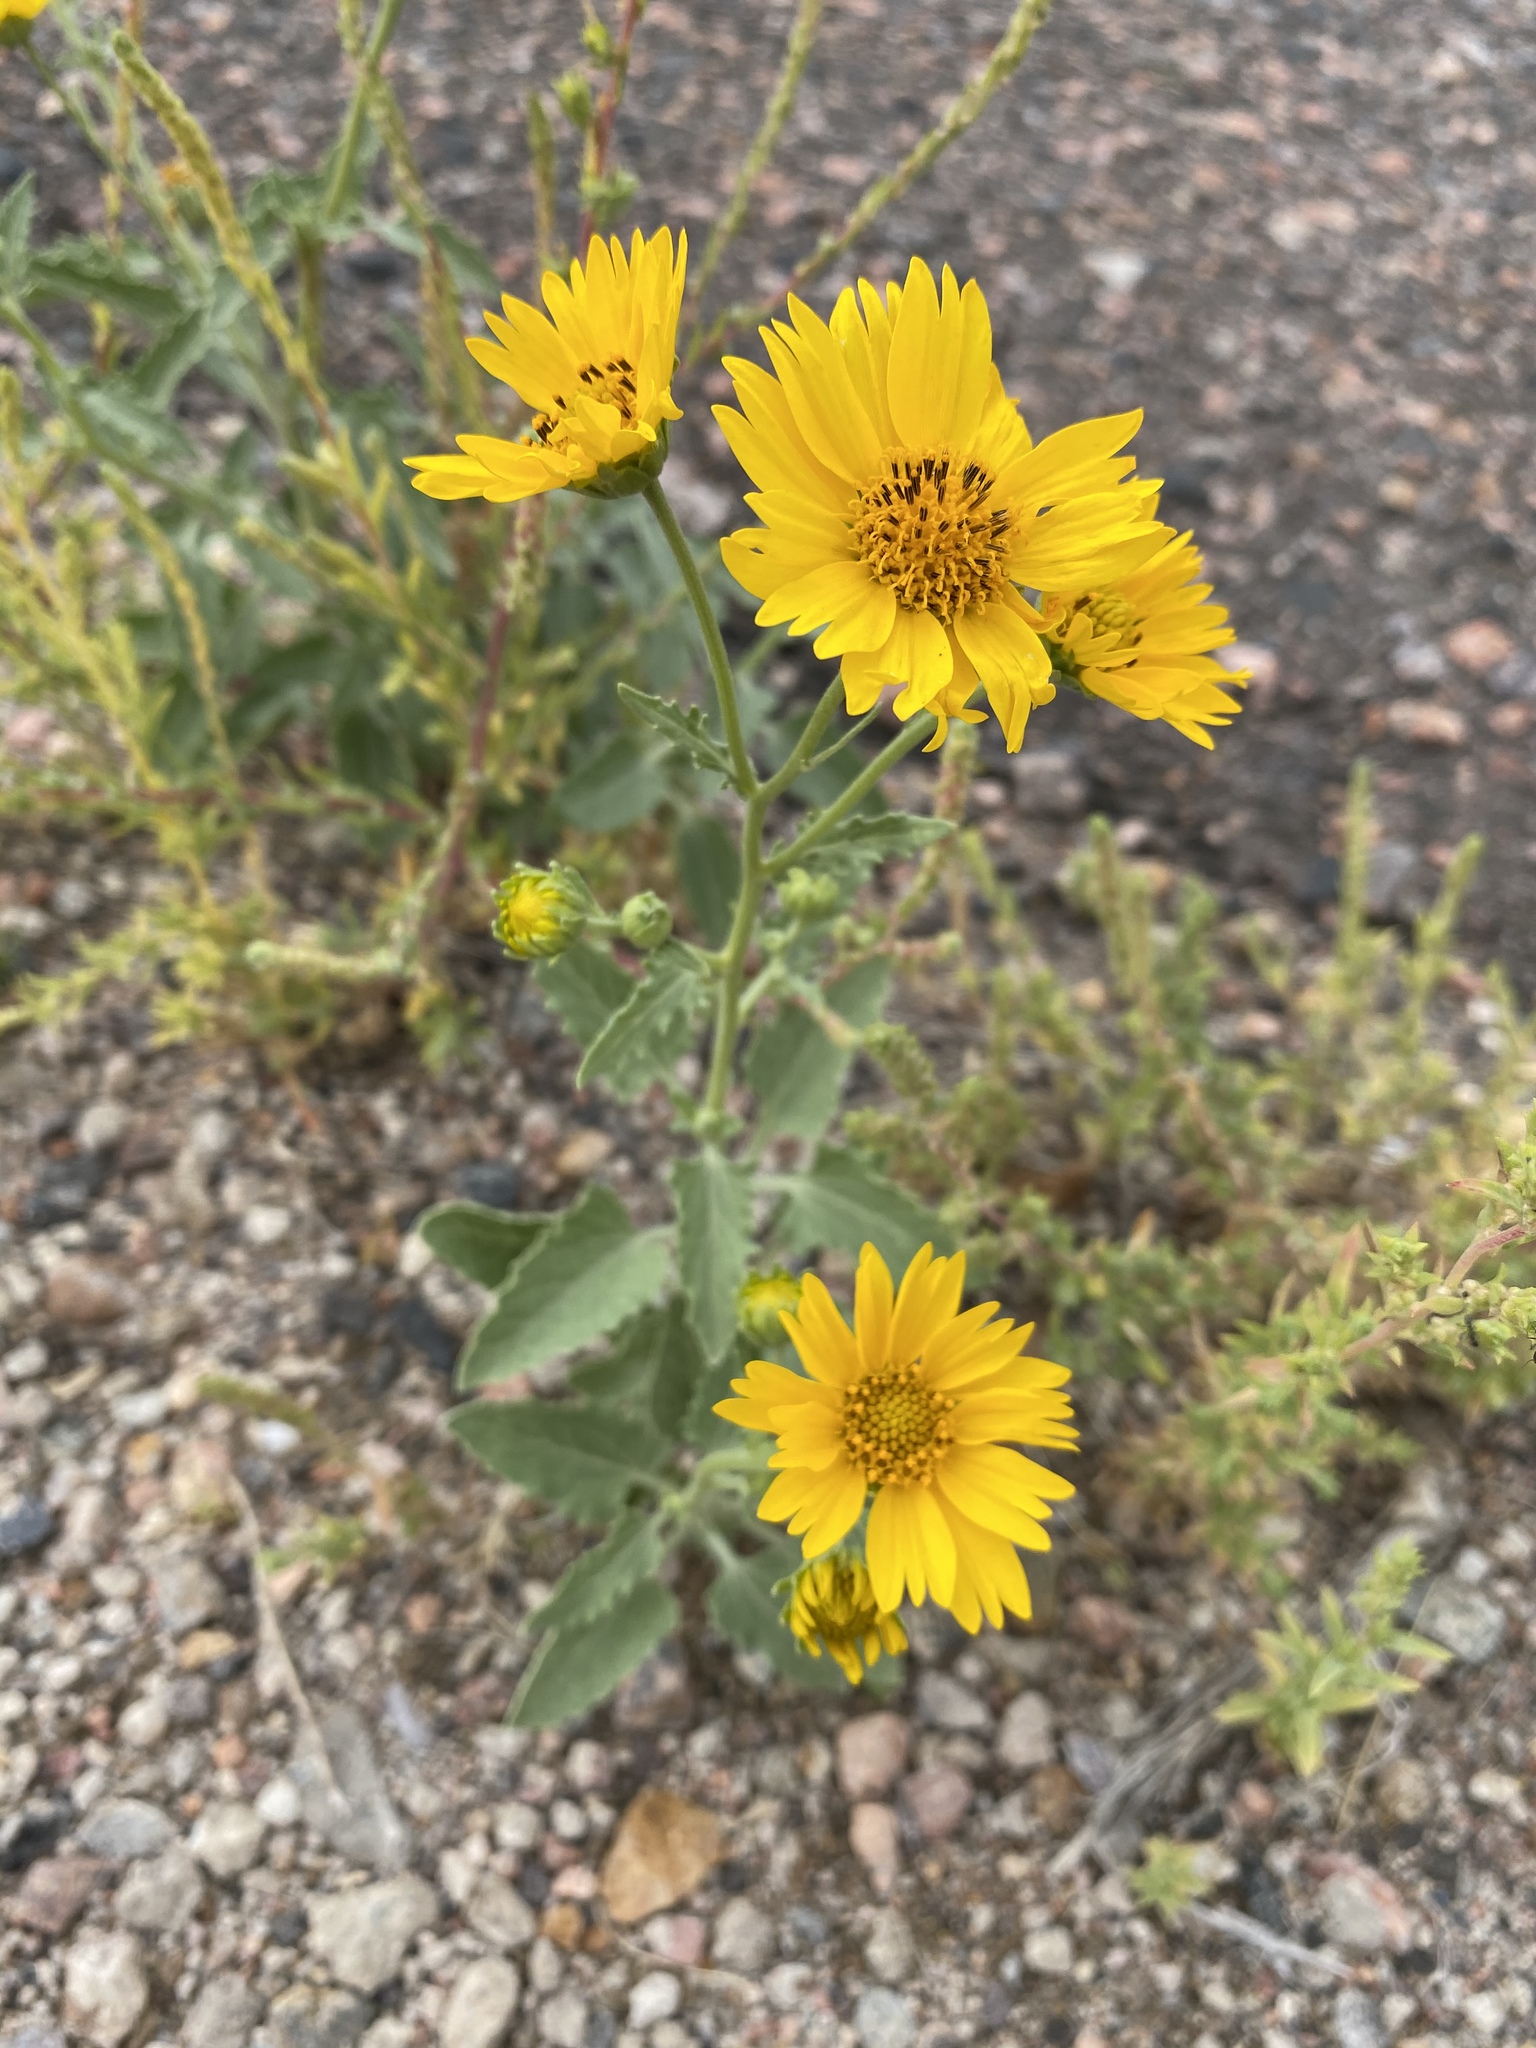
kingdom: Plantae
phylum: Tracheophyta
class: Magnoliopsida
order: Asterales
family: Asteraceae
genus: Verbesina
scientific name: Verbesina encelioides
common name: Golden crownbeard
